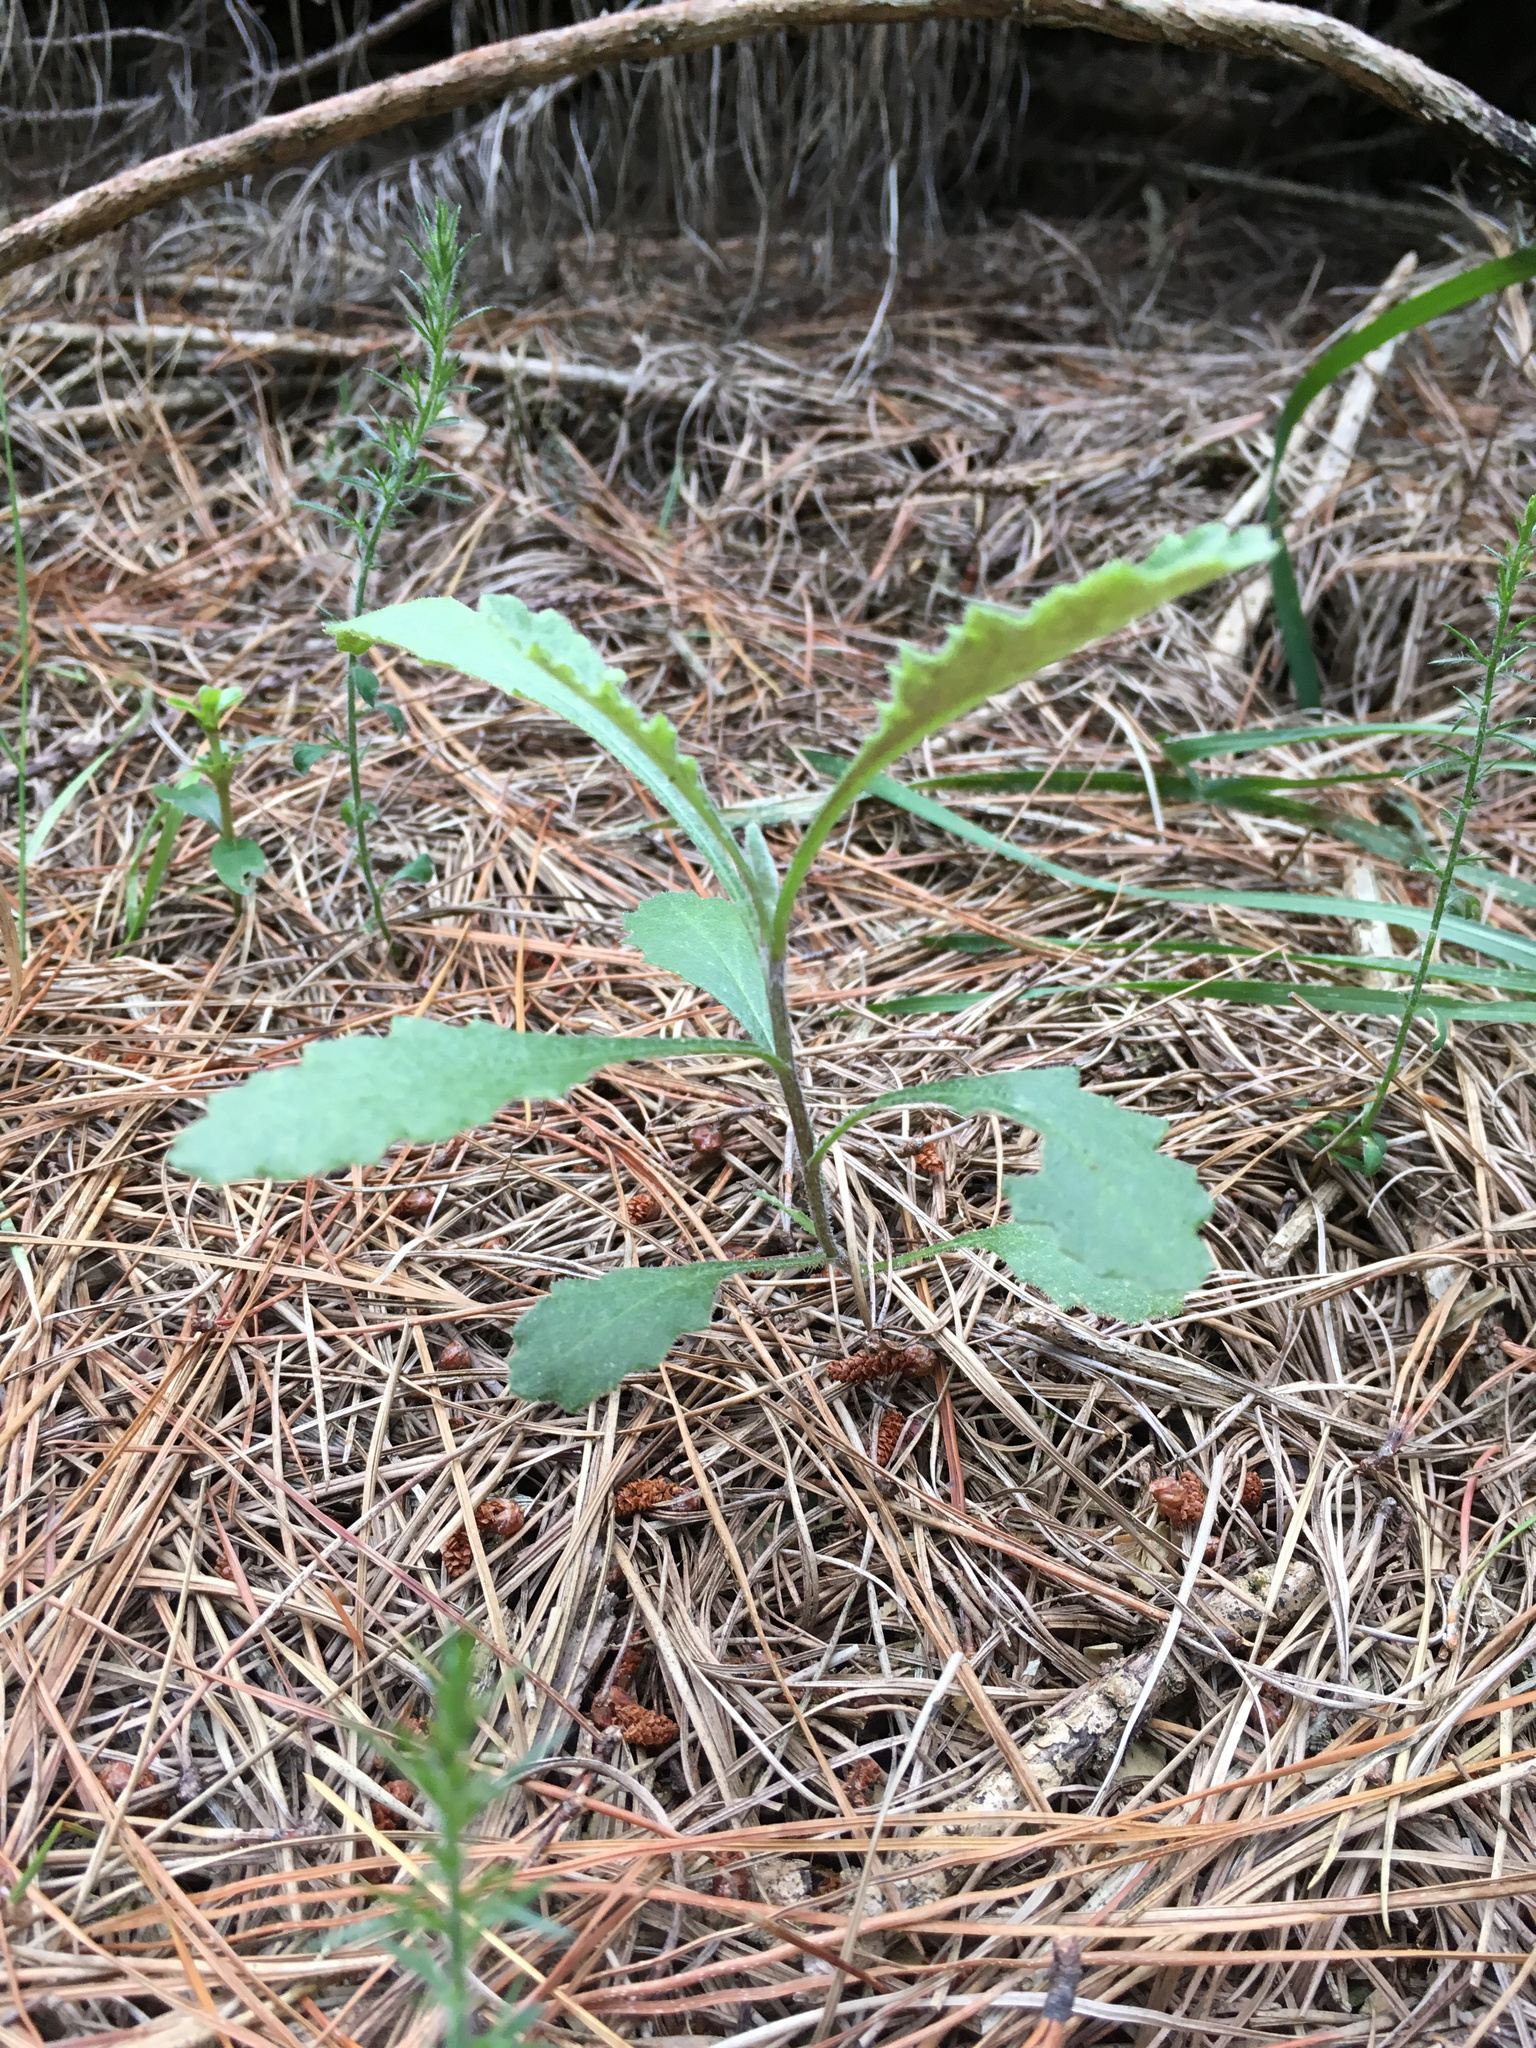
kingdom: Plantae
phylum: Tracheophyta
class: Magnoliopsida
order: Asterales
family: Asteraceae
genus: Senecio
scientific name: Senecio glomeratus
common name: Cutleaf burnweed
